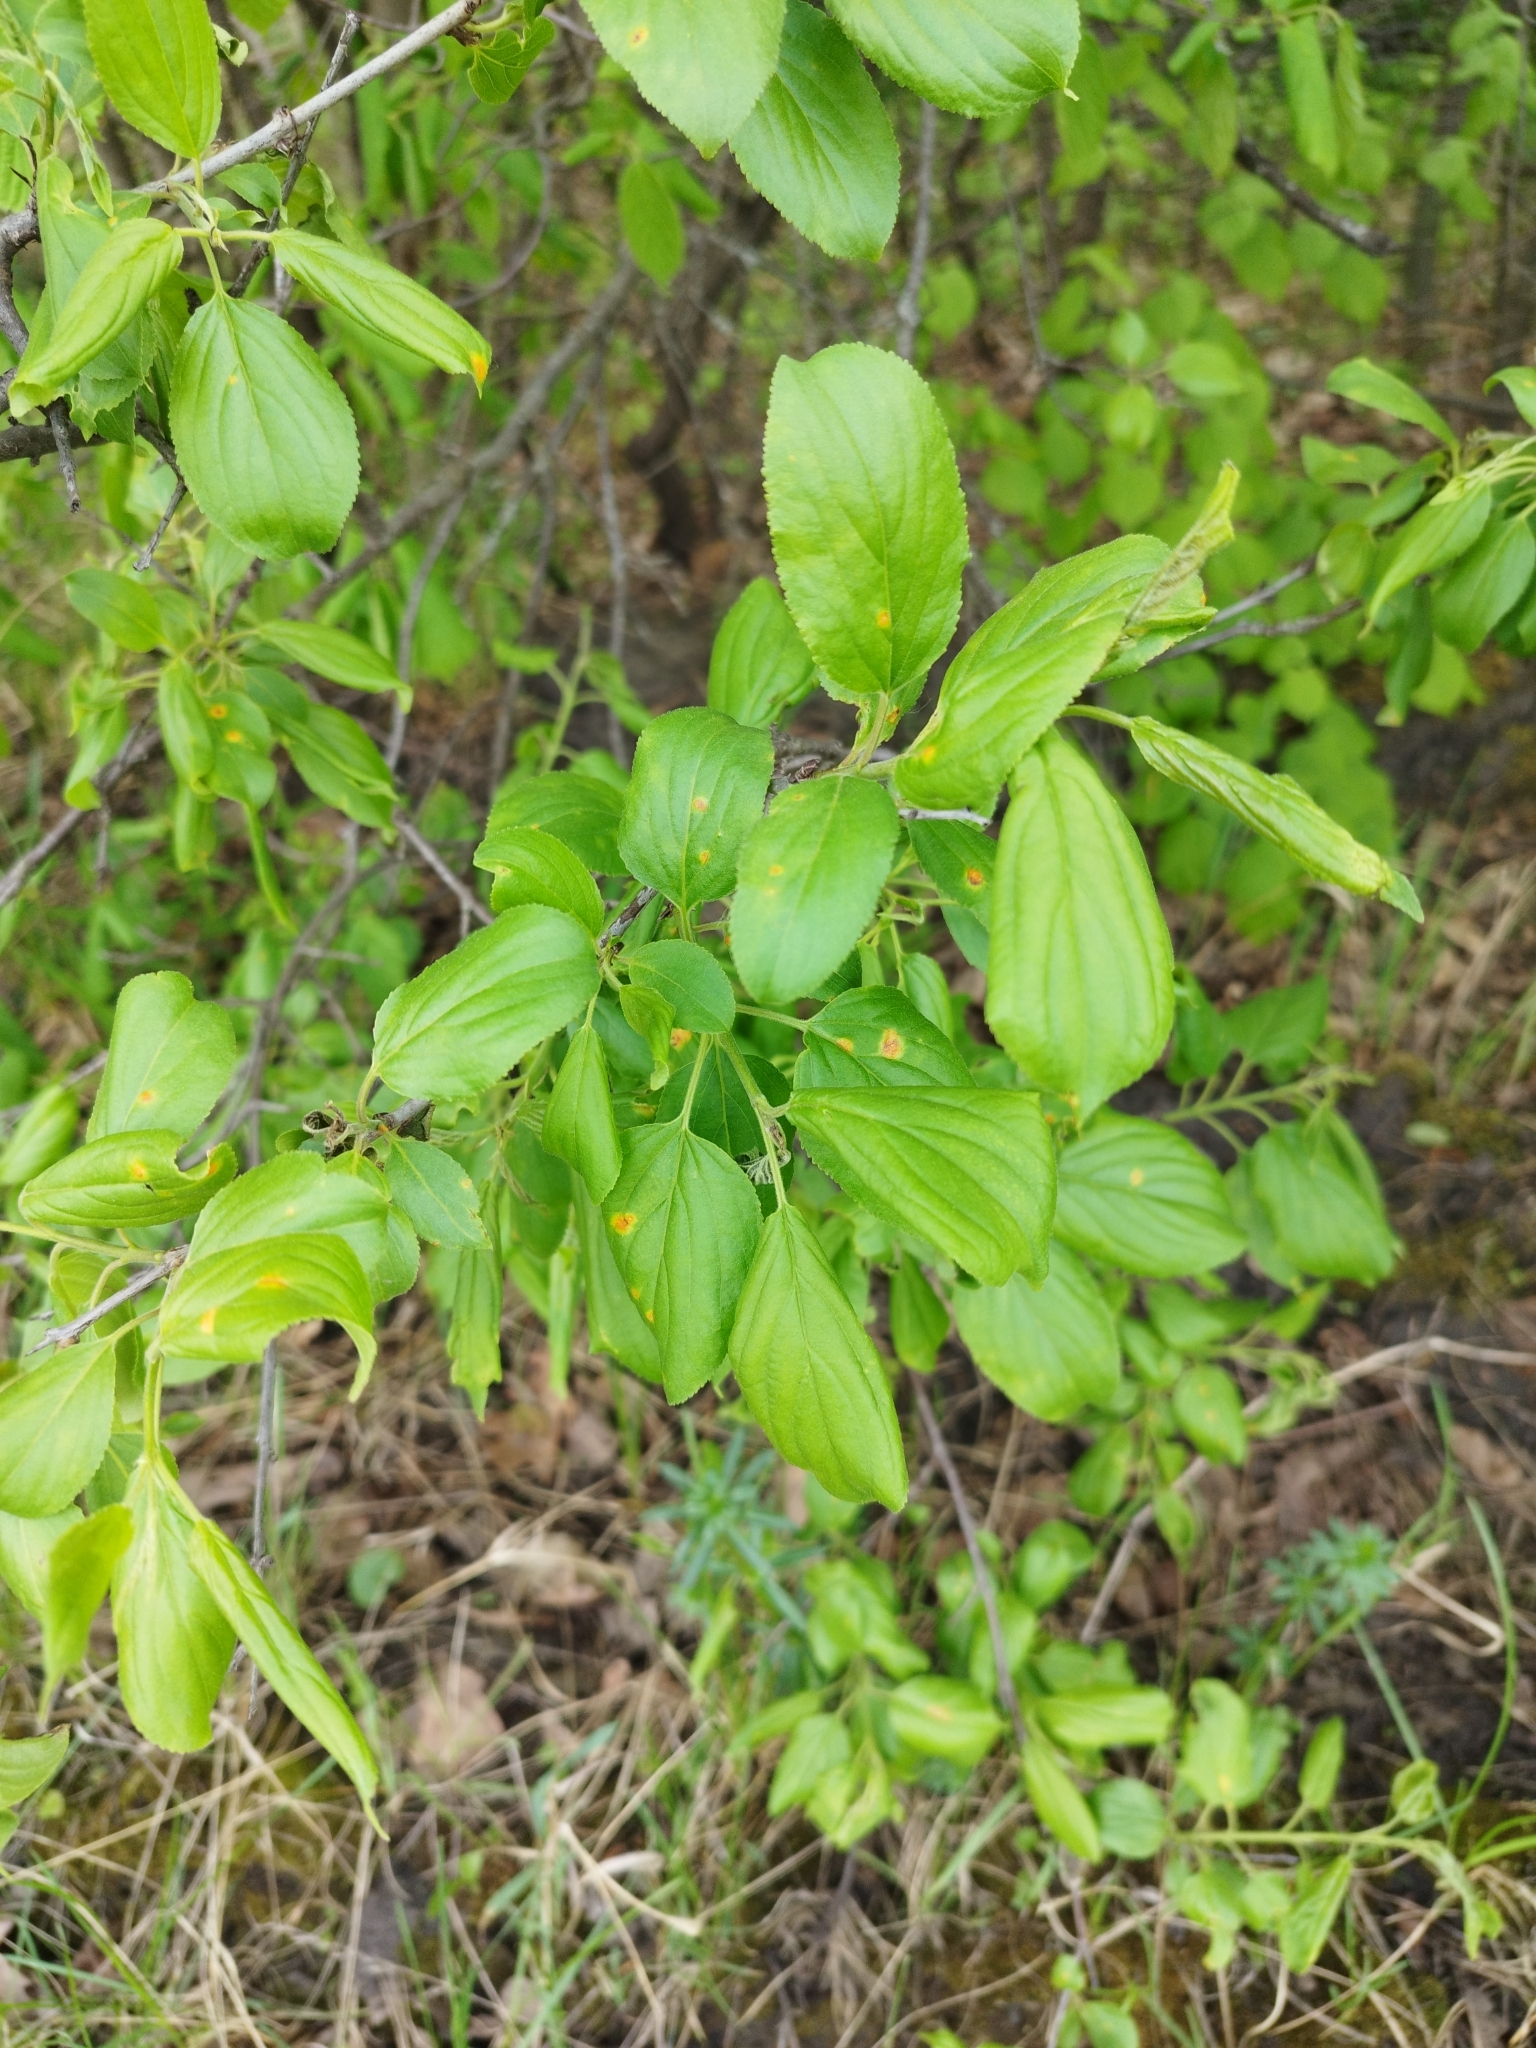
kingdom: Plantae
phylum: Tracheophyta
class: Magnoliopsida
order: Rosales
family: Rhamnaceae
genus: Rhamnus
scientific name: Rhamnus cathartica
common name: Common buckthorn
